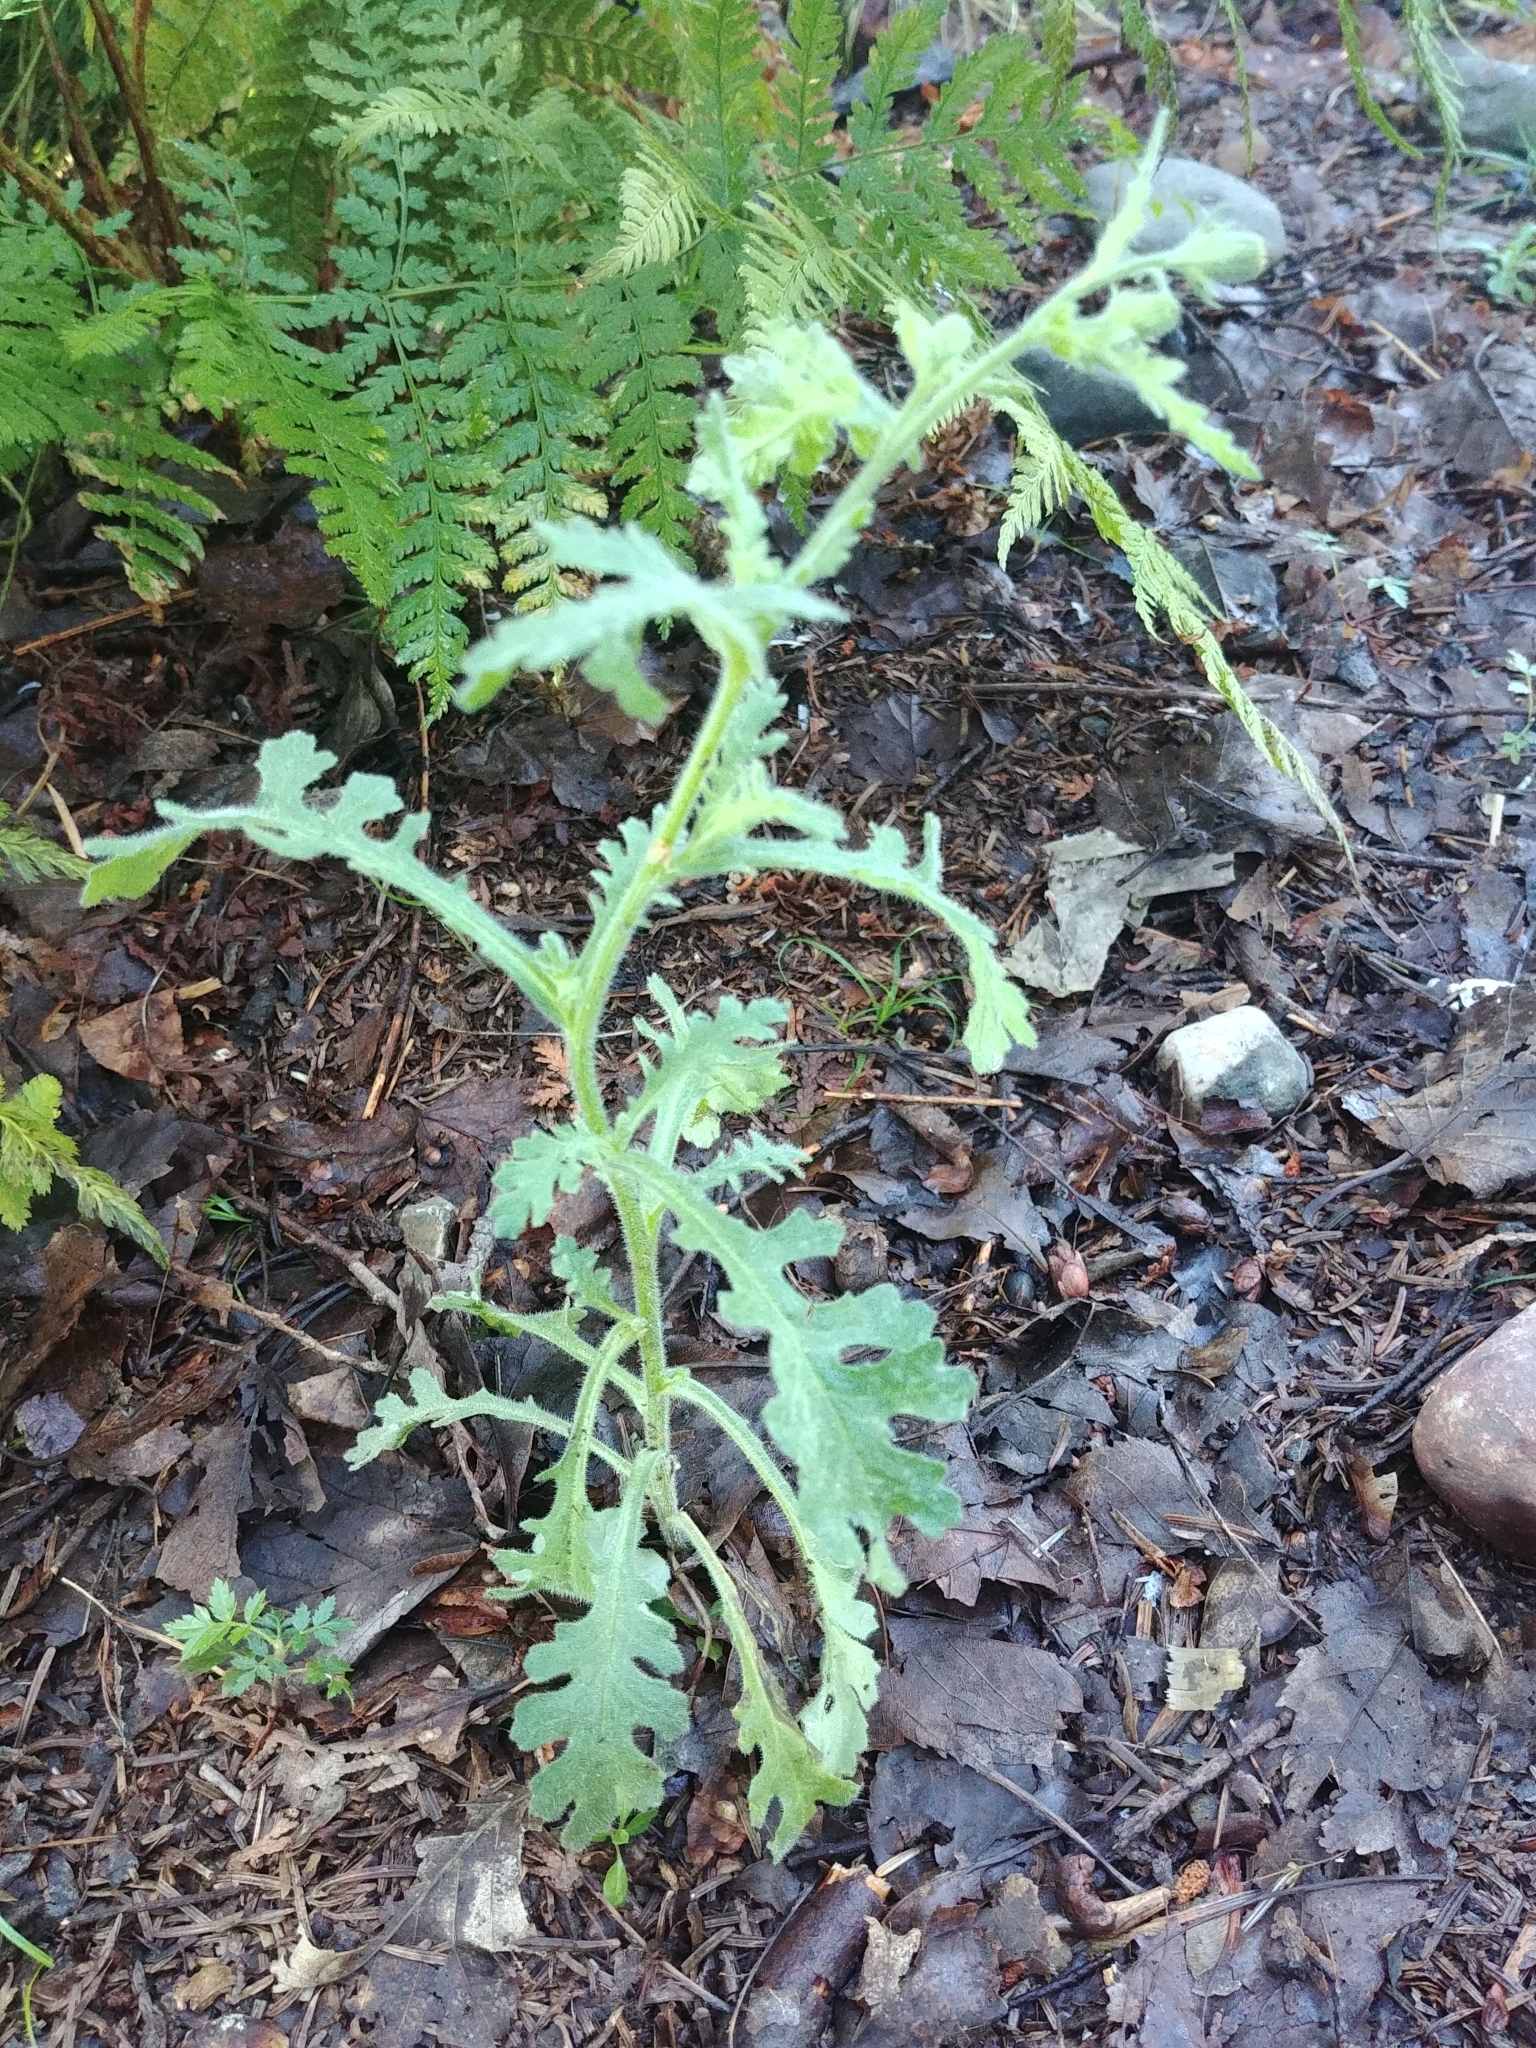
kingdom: Plantae
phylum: Tracheophyta
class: Magnoliopsida
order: Asterales
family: Asteraceae
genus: Senecio
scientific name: Senecio viscosus
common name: Sticky groundsel
